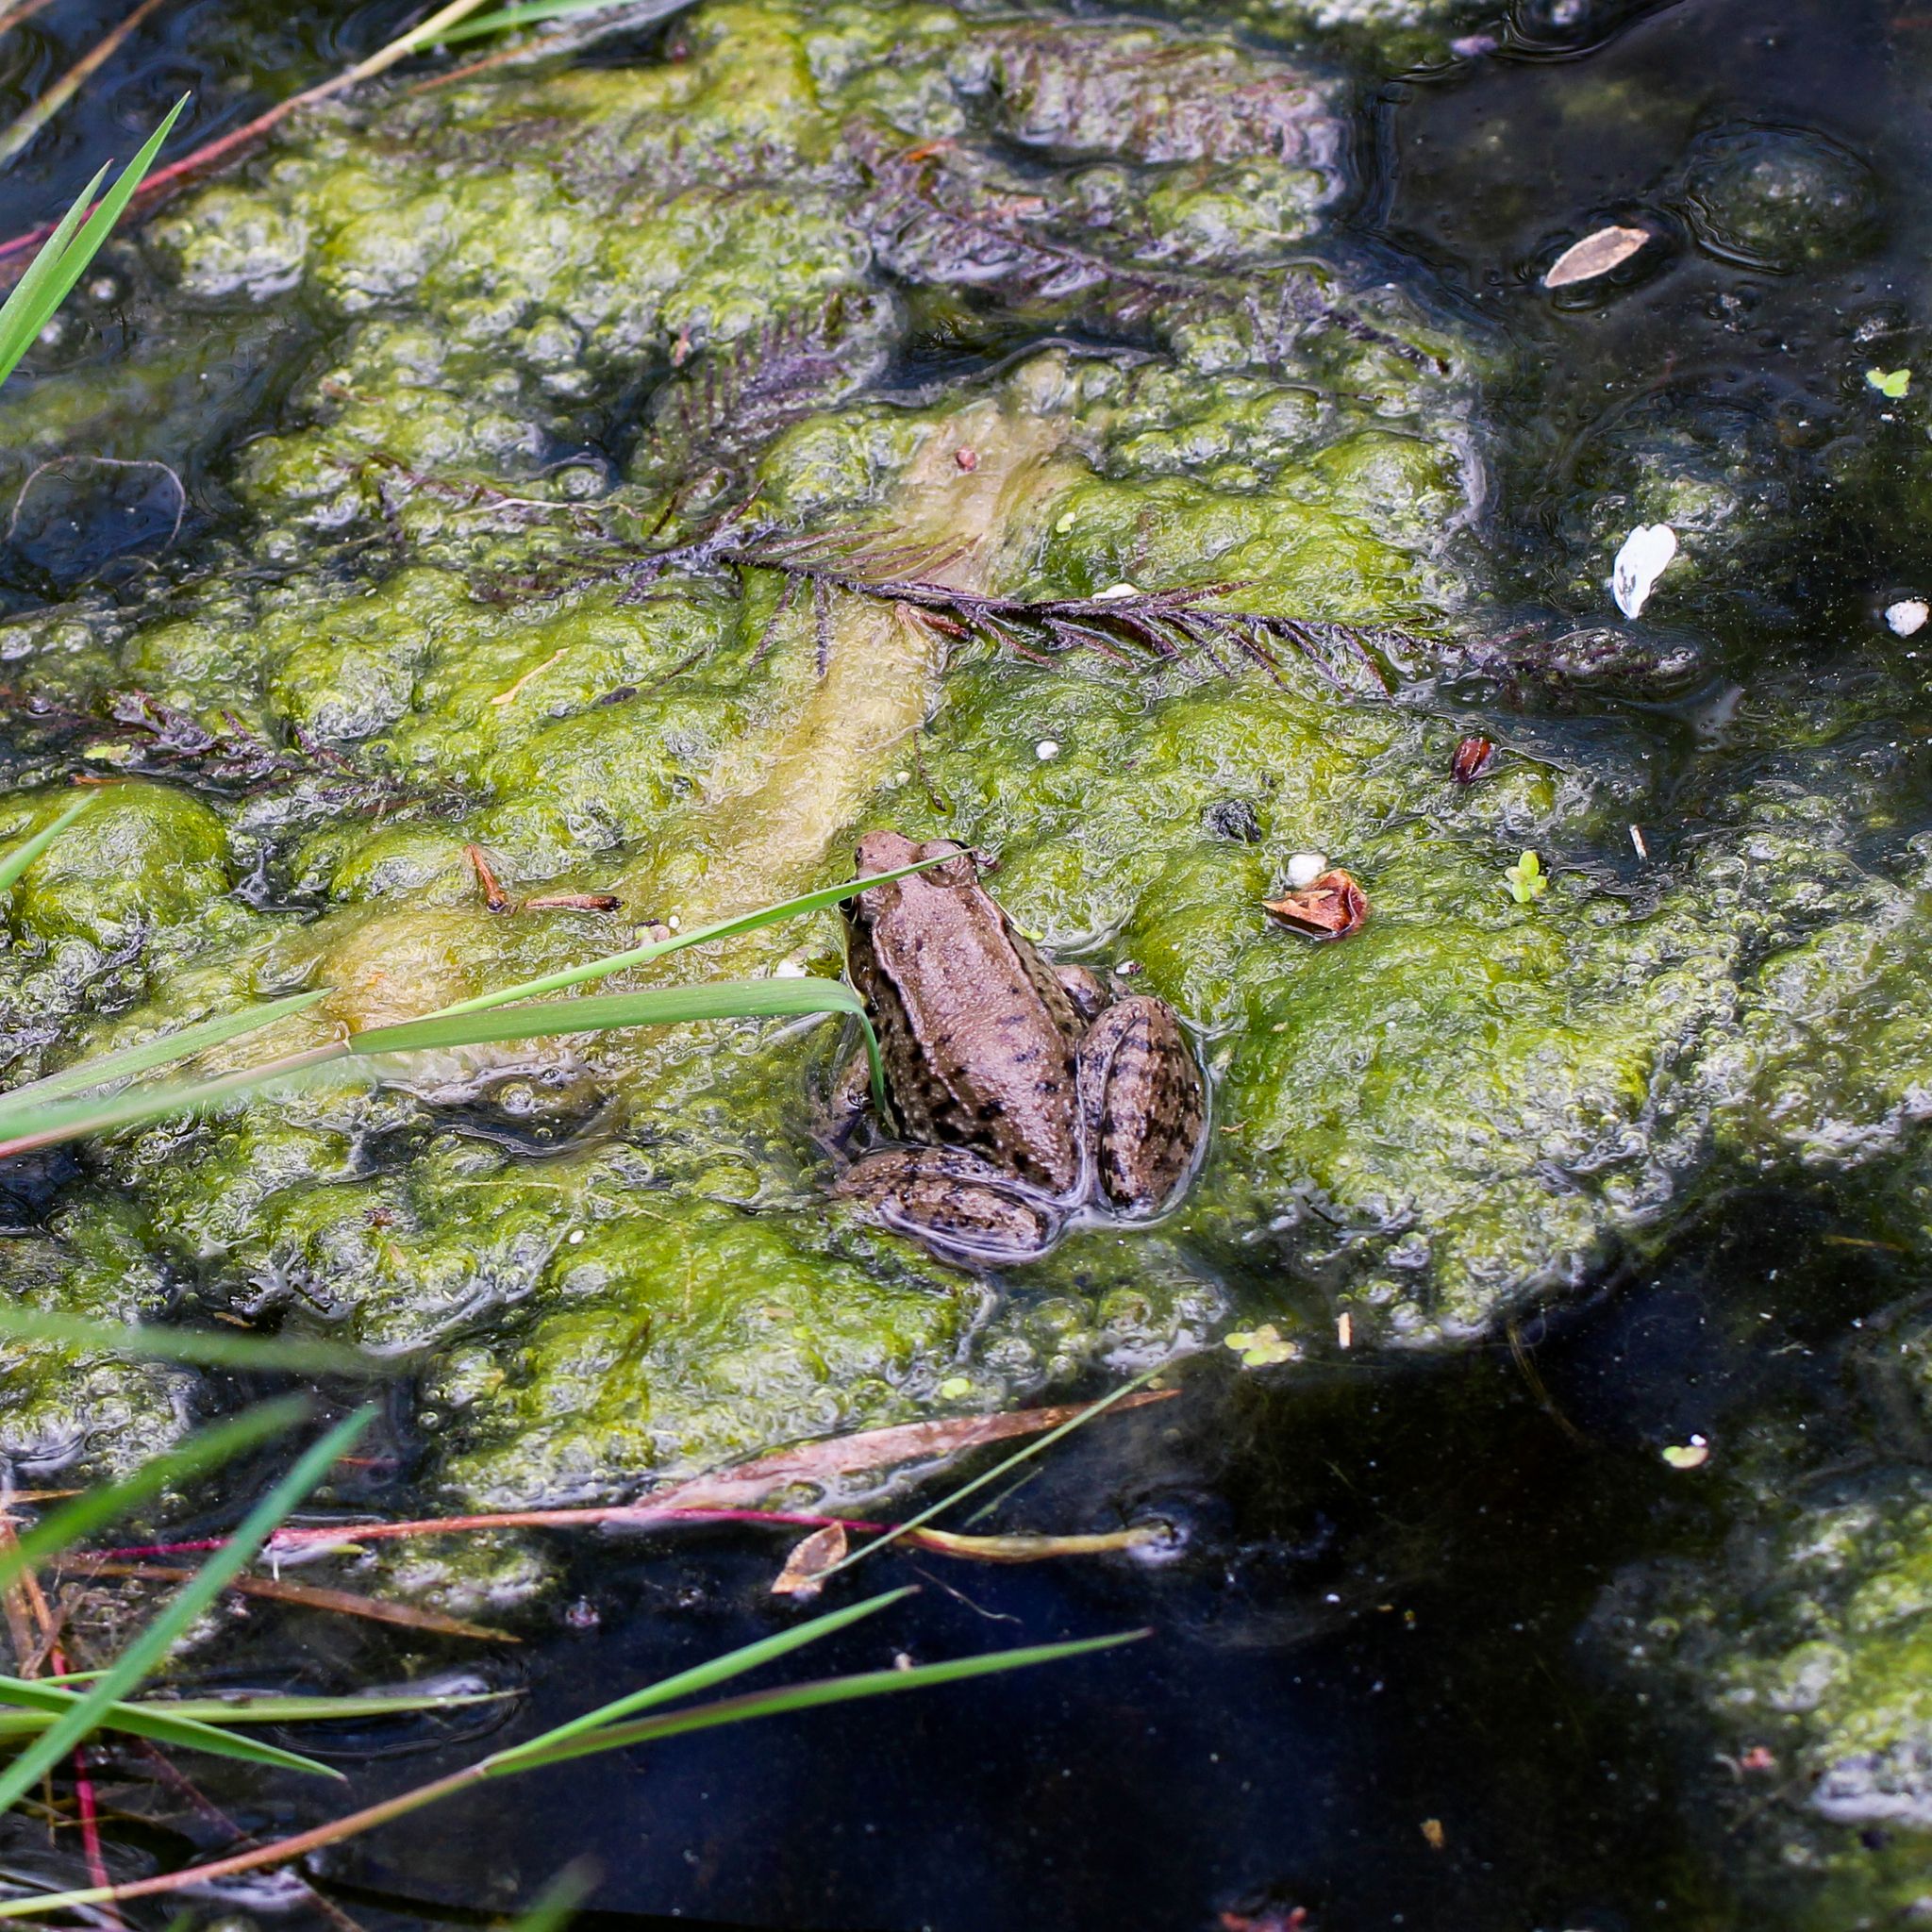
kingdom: Animalia
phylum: Chordata
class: Amphibia
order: Anura
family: Ranidae
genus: Lithobates
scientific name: Lithobates clamitans
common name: Green frog
